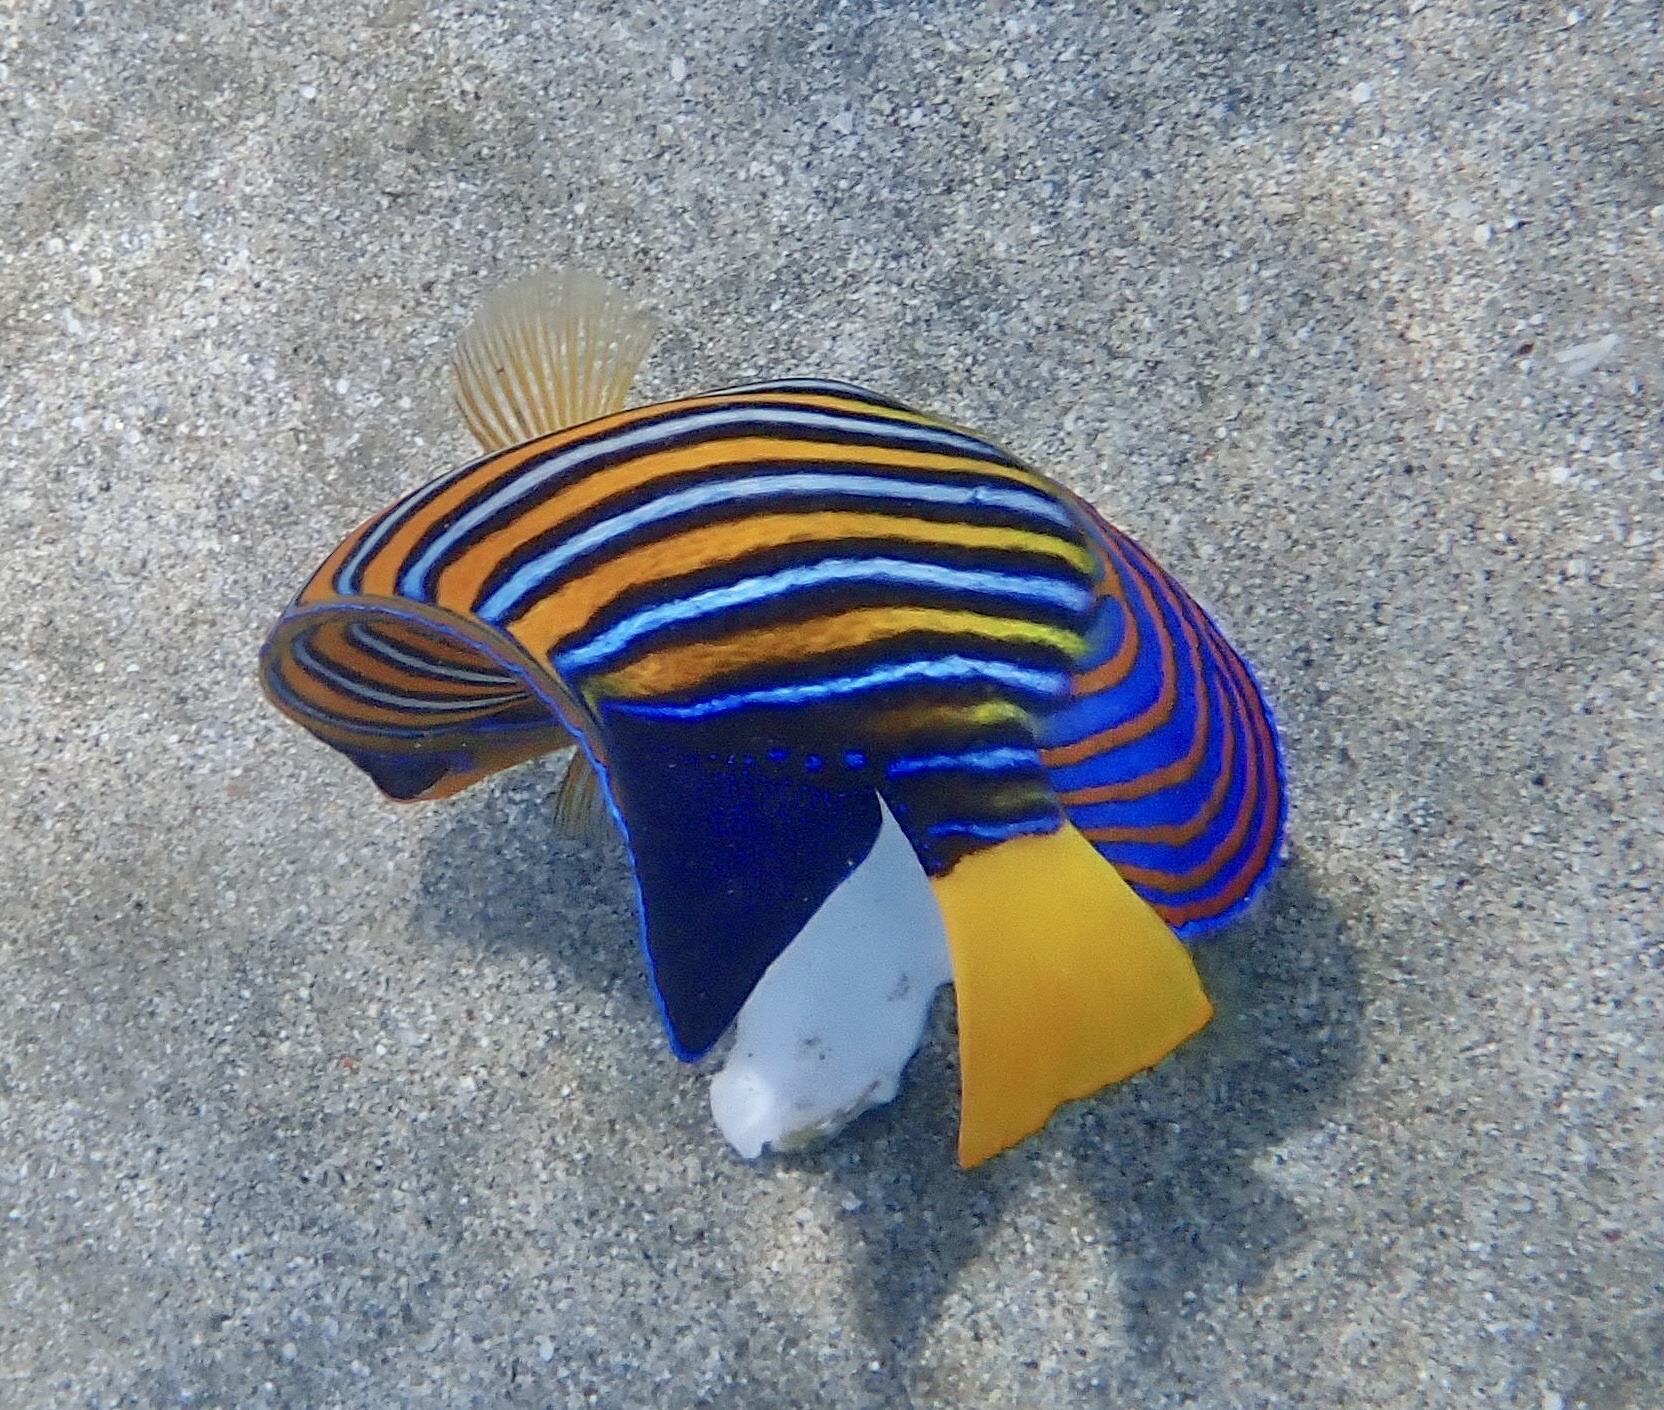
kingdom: Animalia
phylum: Chordata
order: Perciformes
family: Pomacanthidae
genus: Pygoplites
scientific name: Pygoplites diacanthus
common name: Regal angelfish
